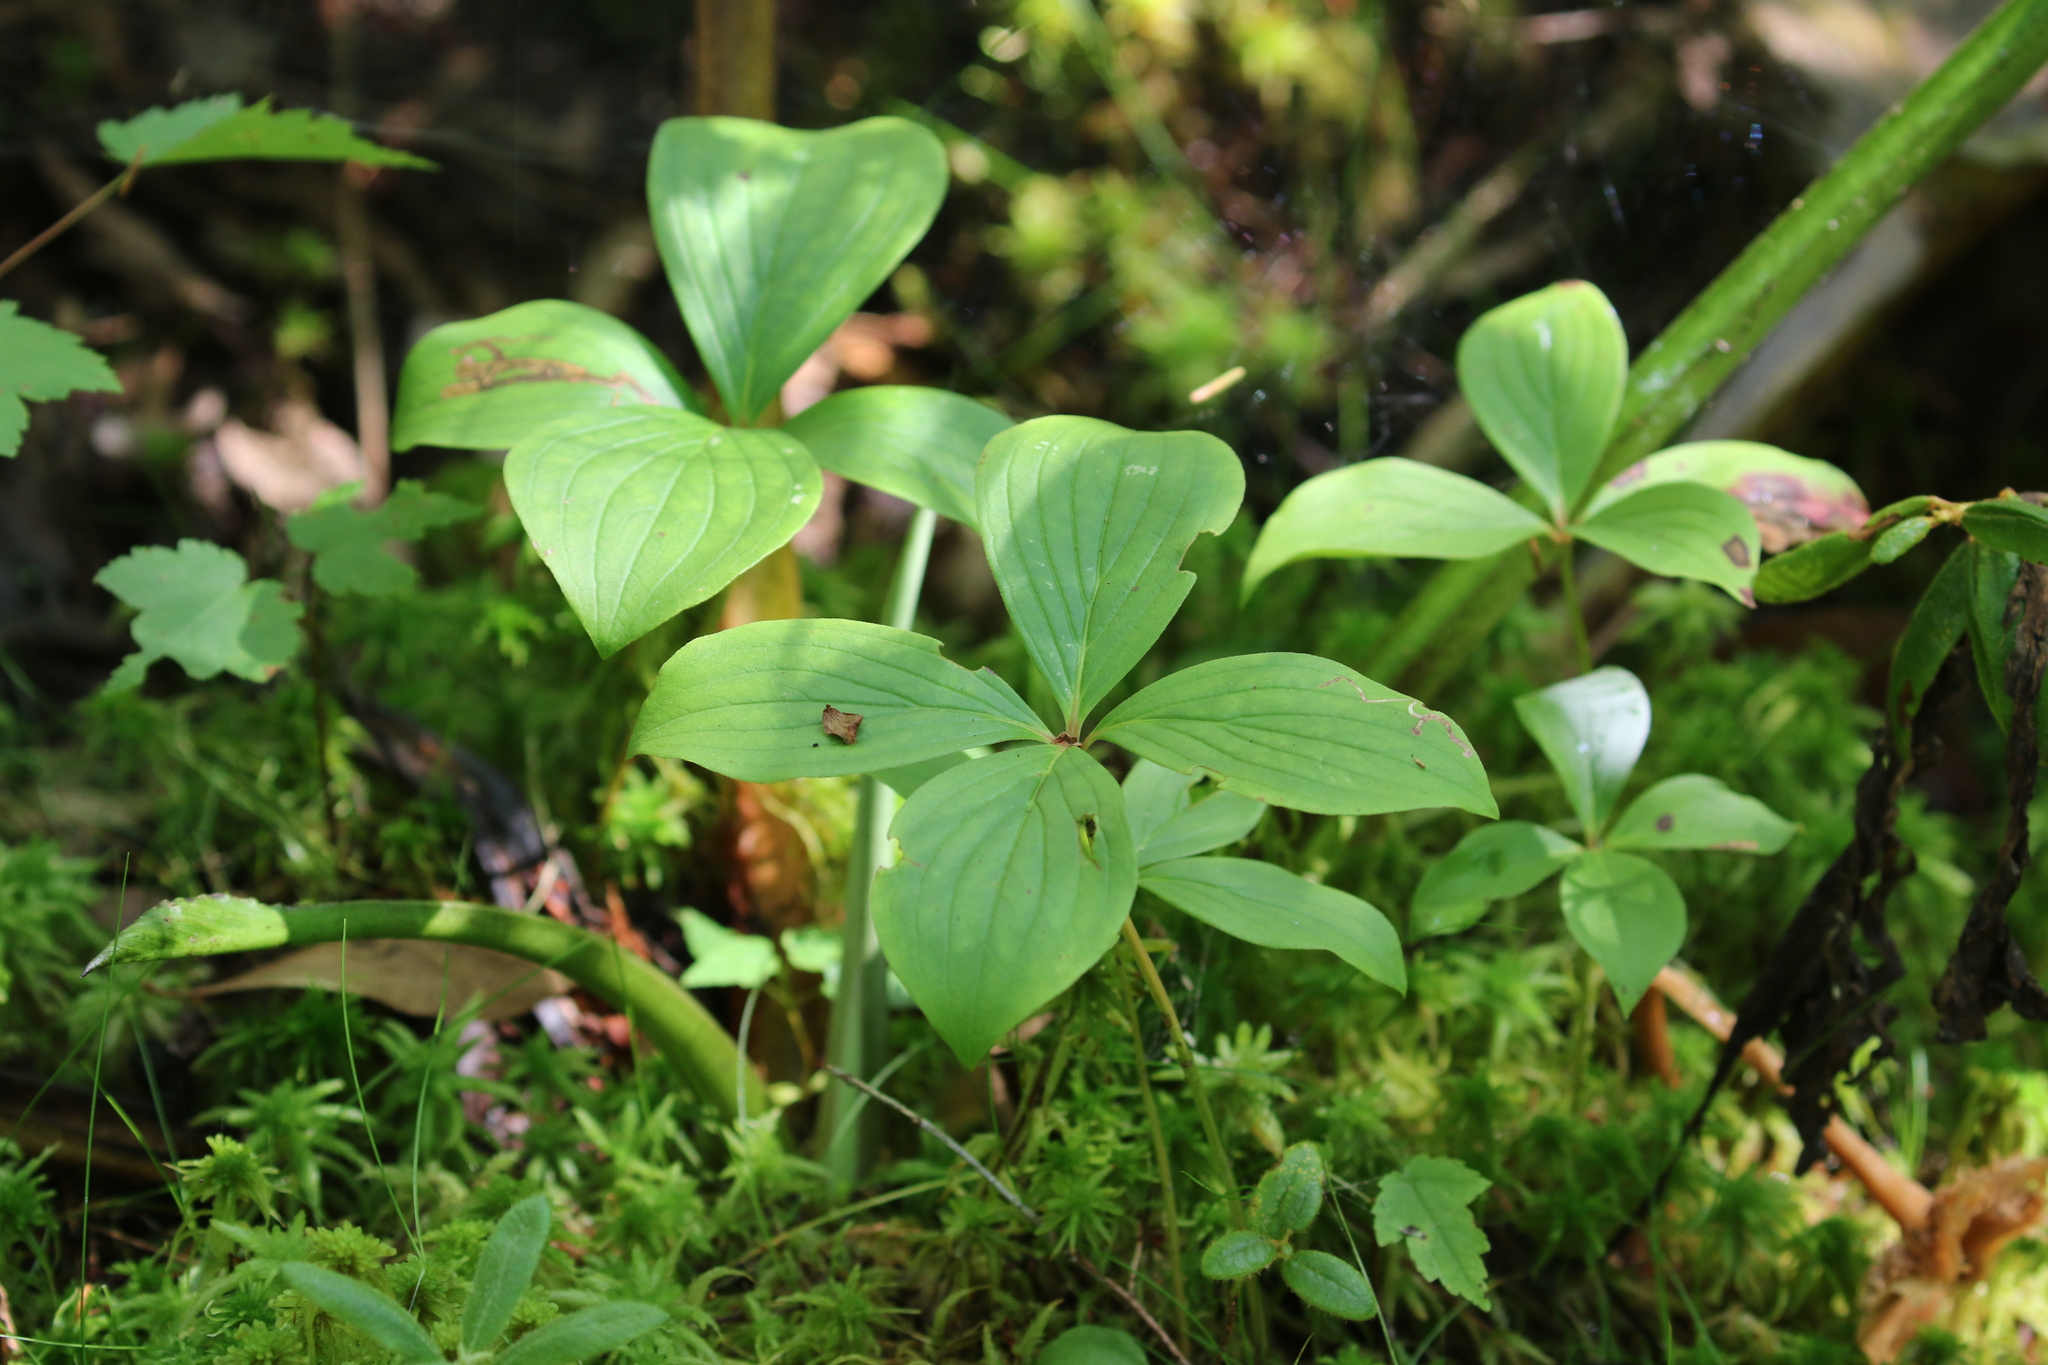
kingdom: Plantae
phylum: Tracheophyta
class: Magnoliopsida
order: Cornales
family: Cornaceae
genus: Cornus
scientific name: Cornus canadensis
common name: Creeping dogwood
